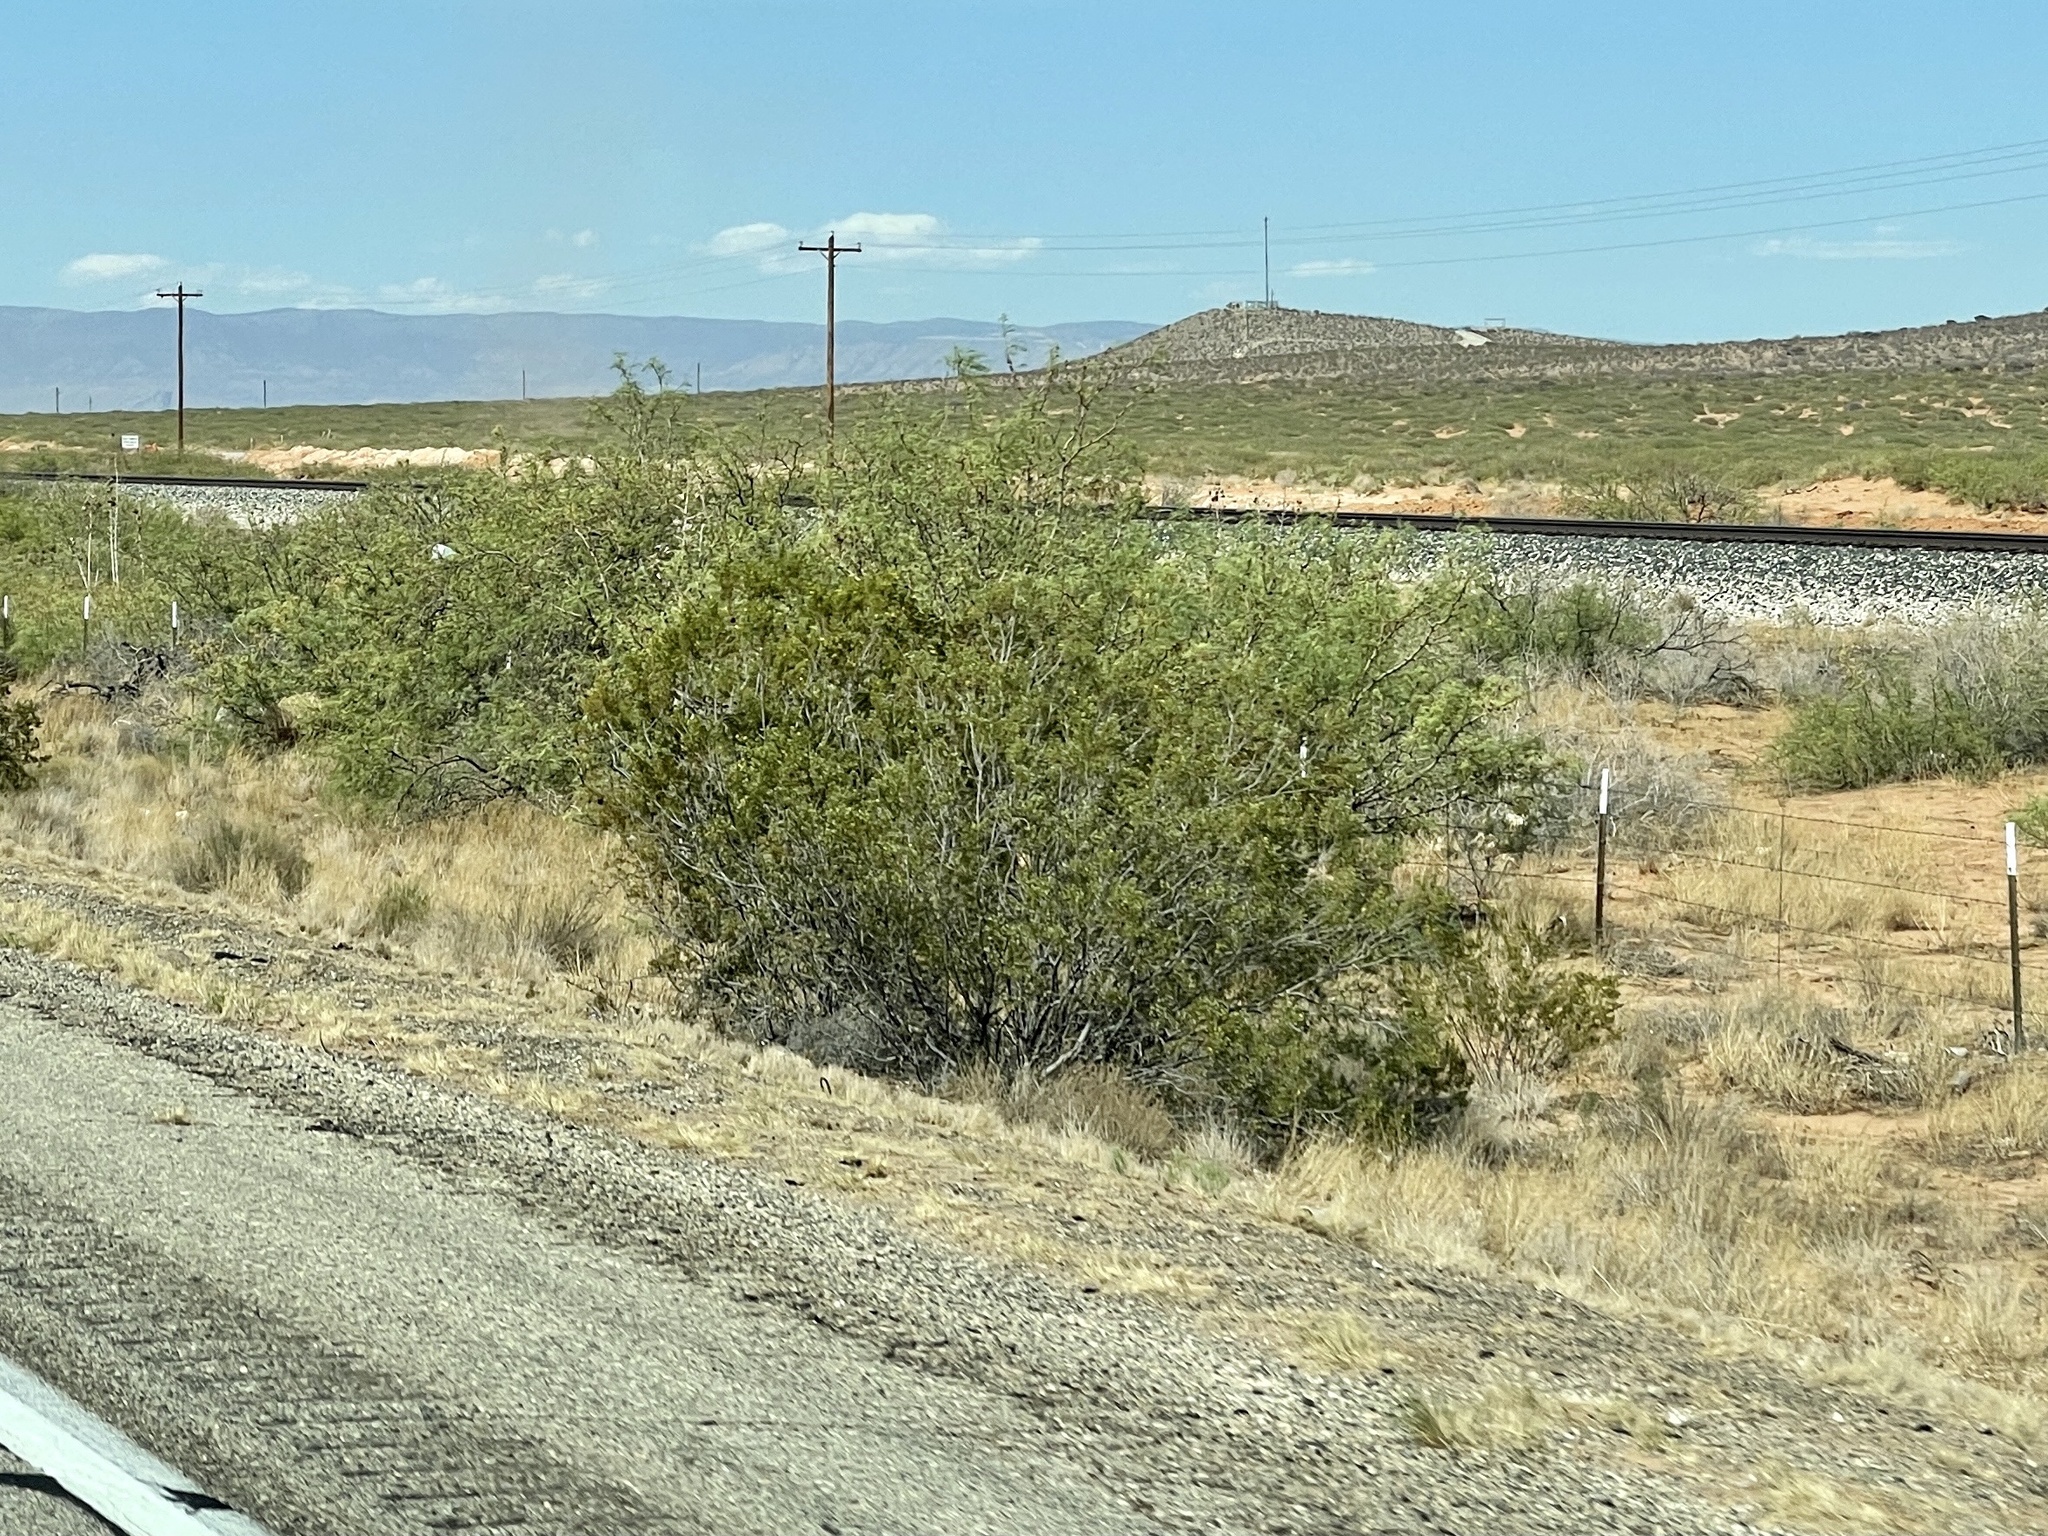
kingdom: Plantae
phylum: Tracheophyta
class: Magnoliopsida
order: Zygophyllales
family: Zygophyllaceae
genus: Larrea
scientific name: Larrea tridentata
